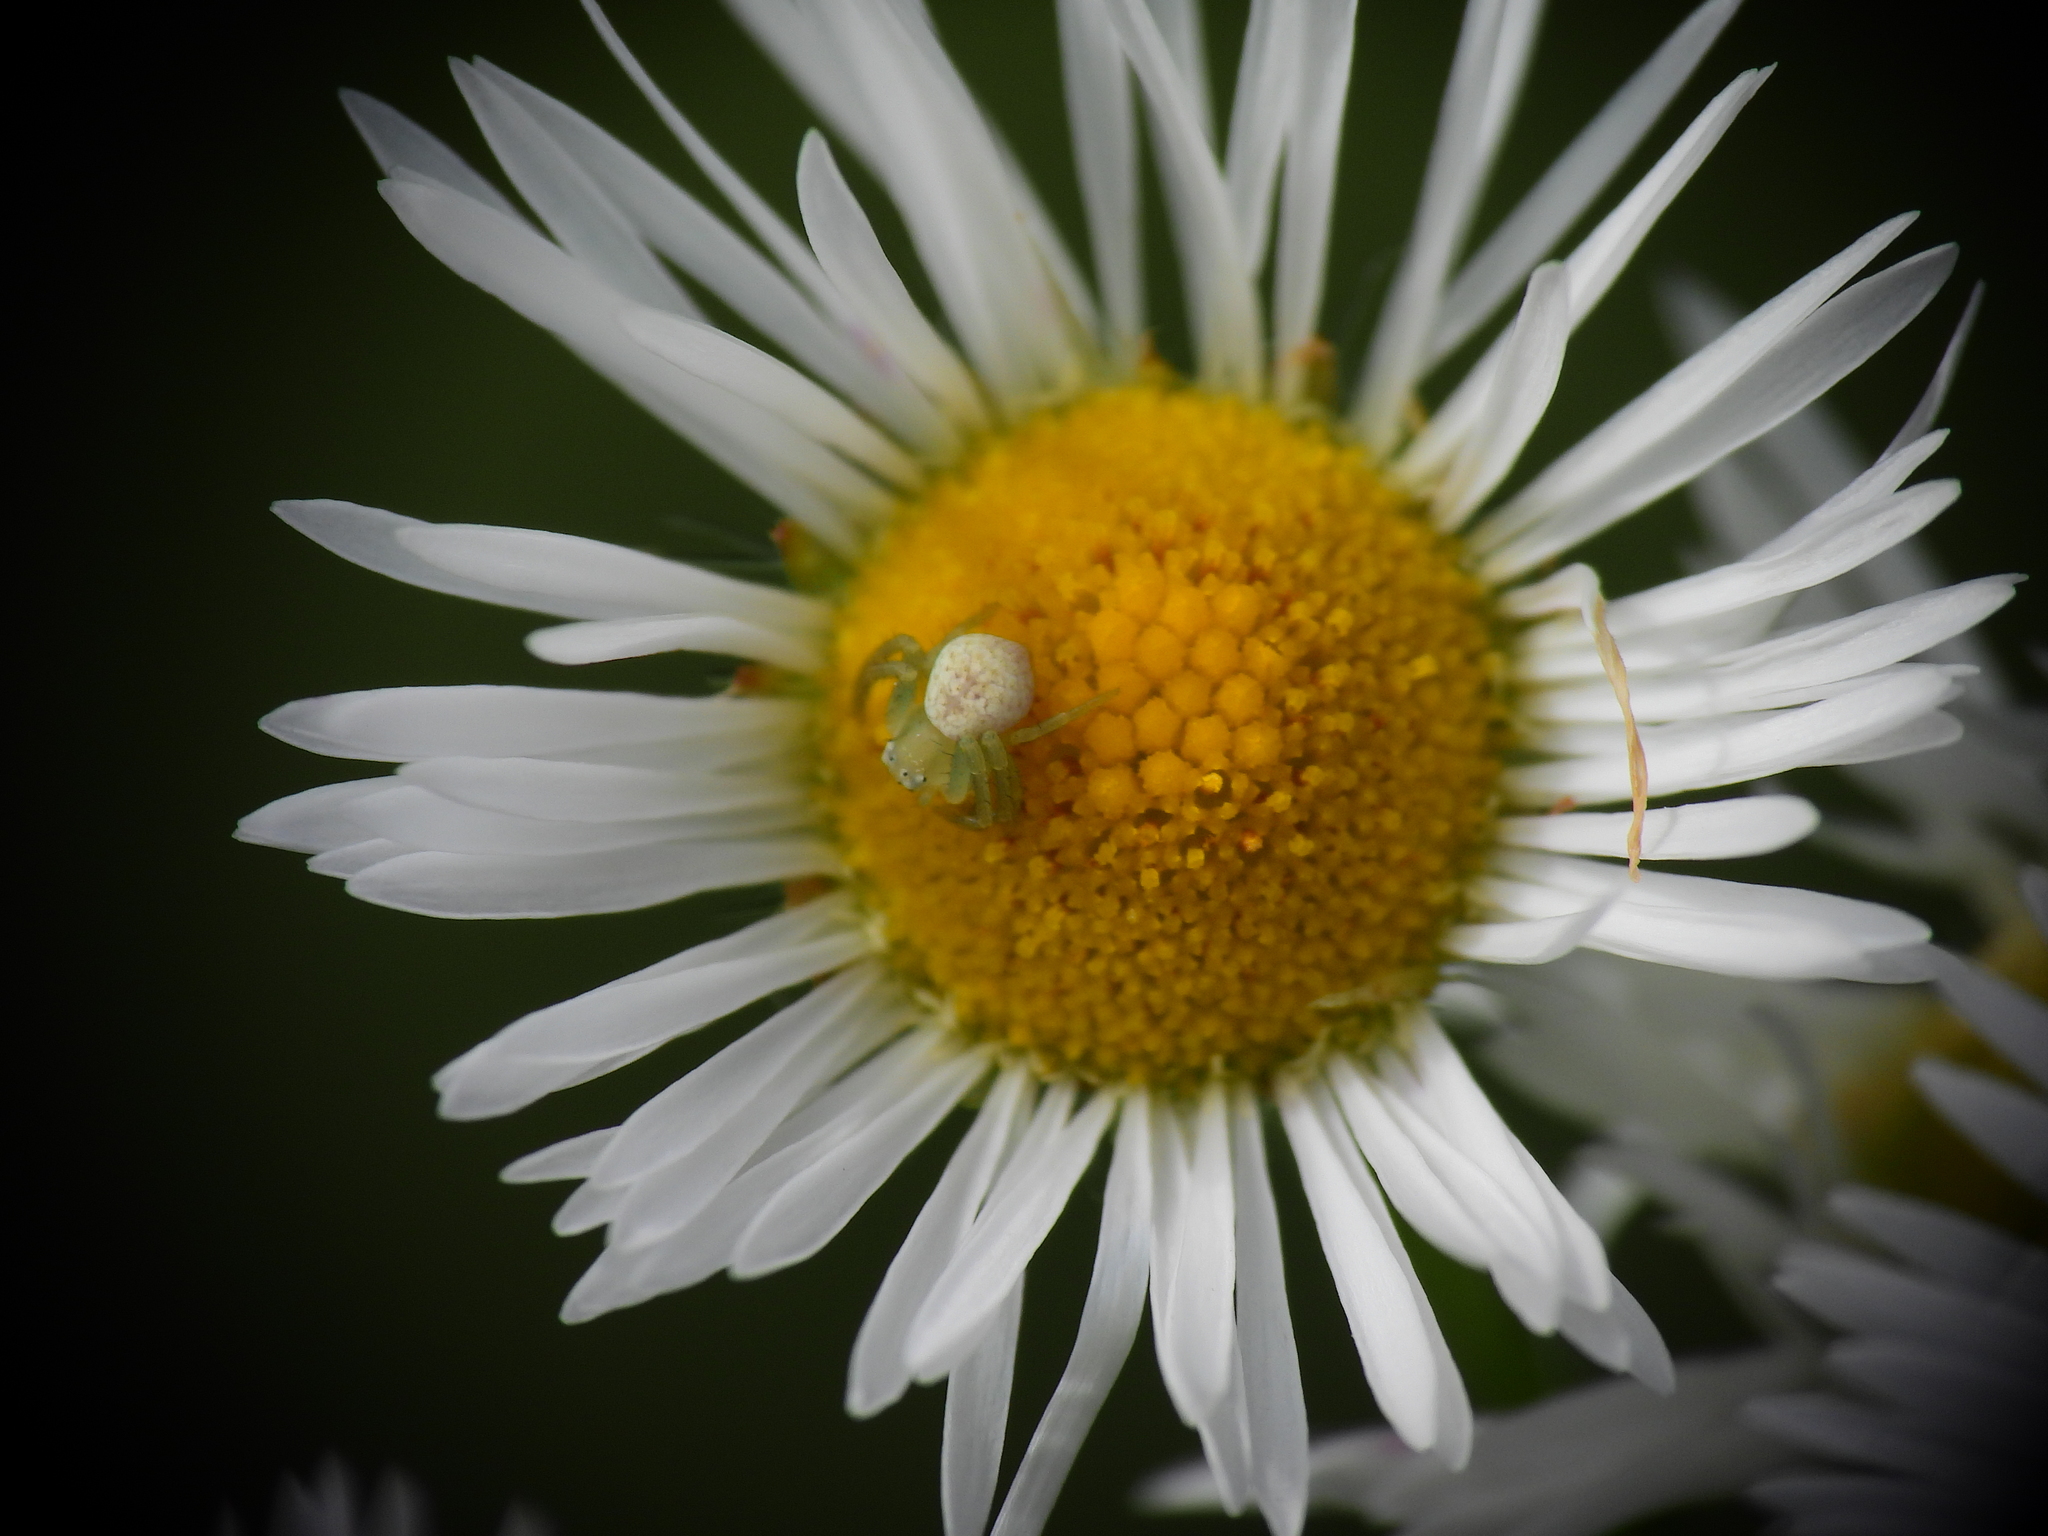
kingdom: Animalia
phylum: Arthropoda
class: Arachnida
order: Araneae
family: Thomisidae
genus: Ebrechtella
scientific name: Ebrechtella tricuspidata
